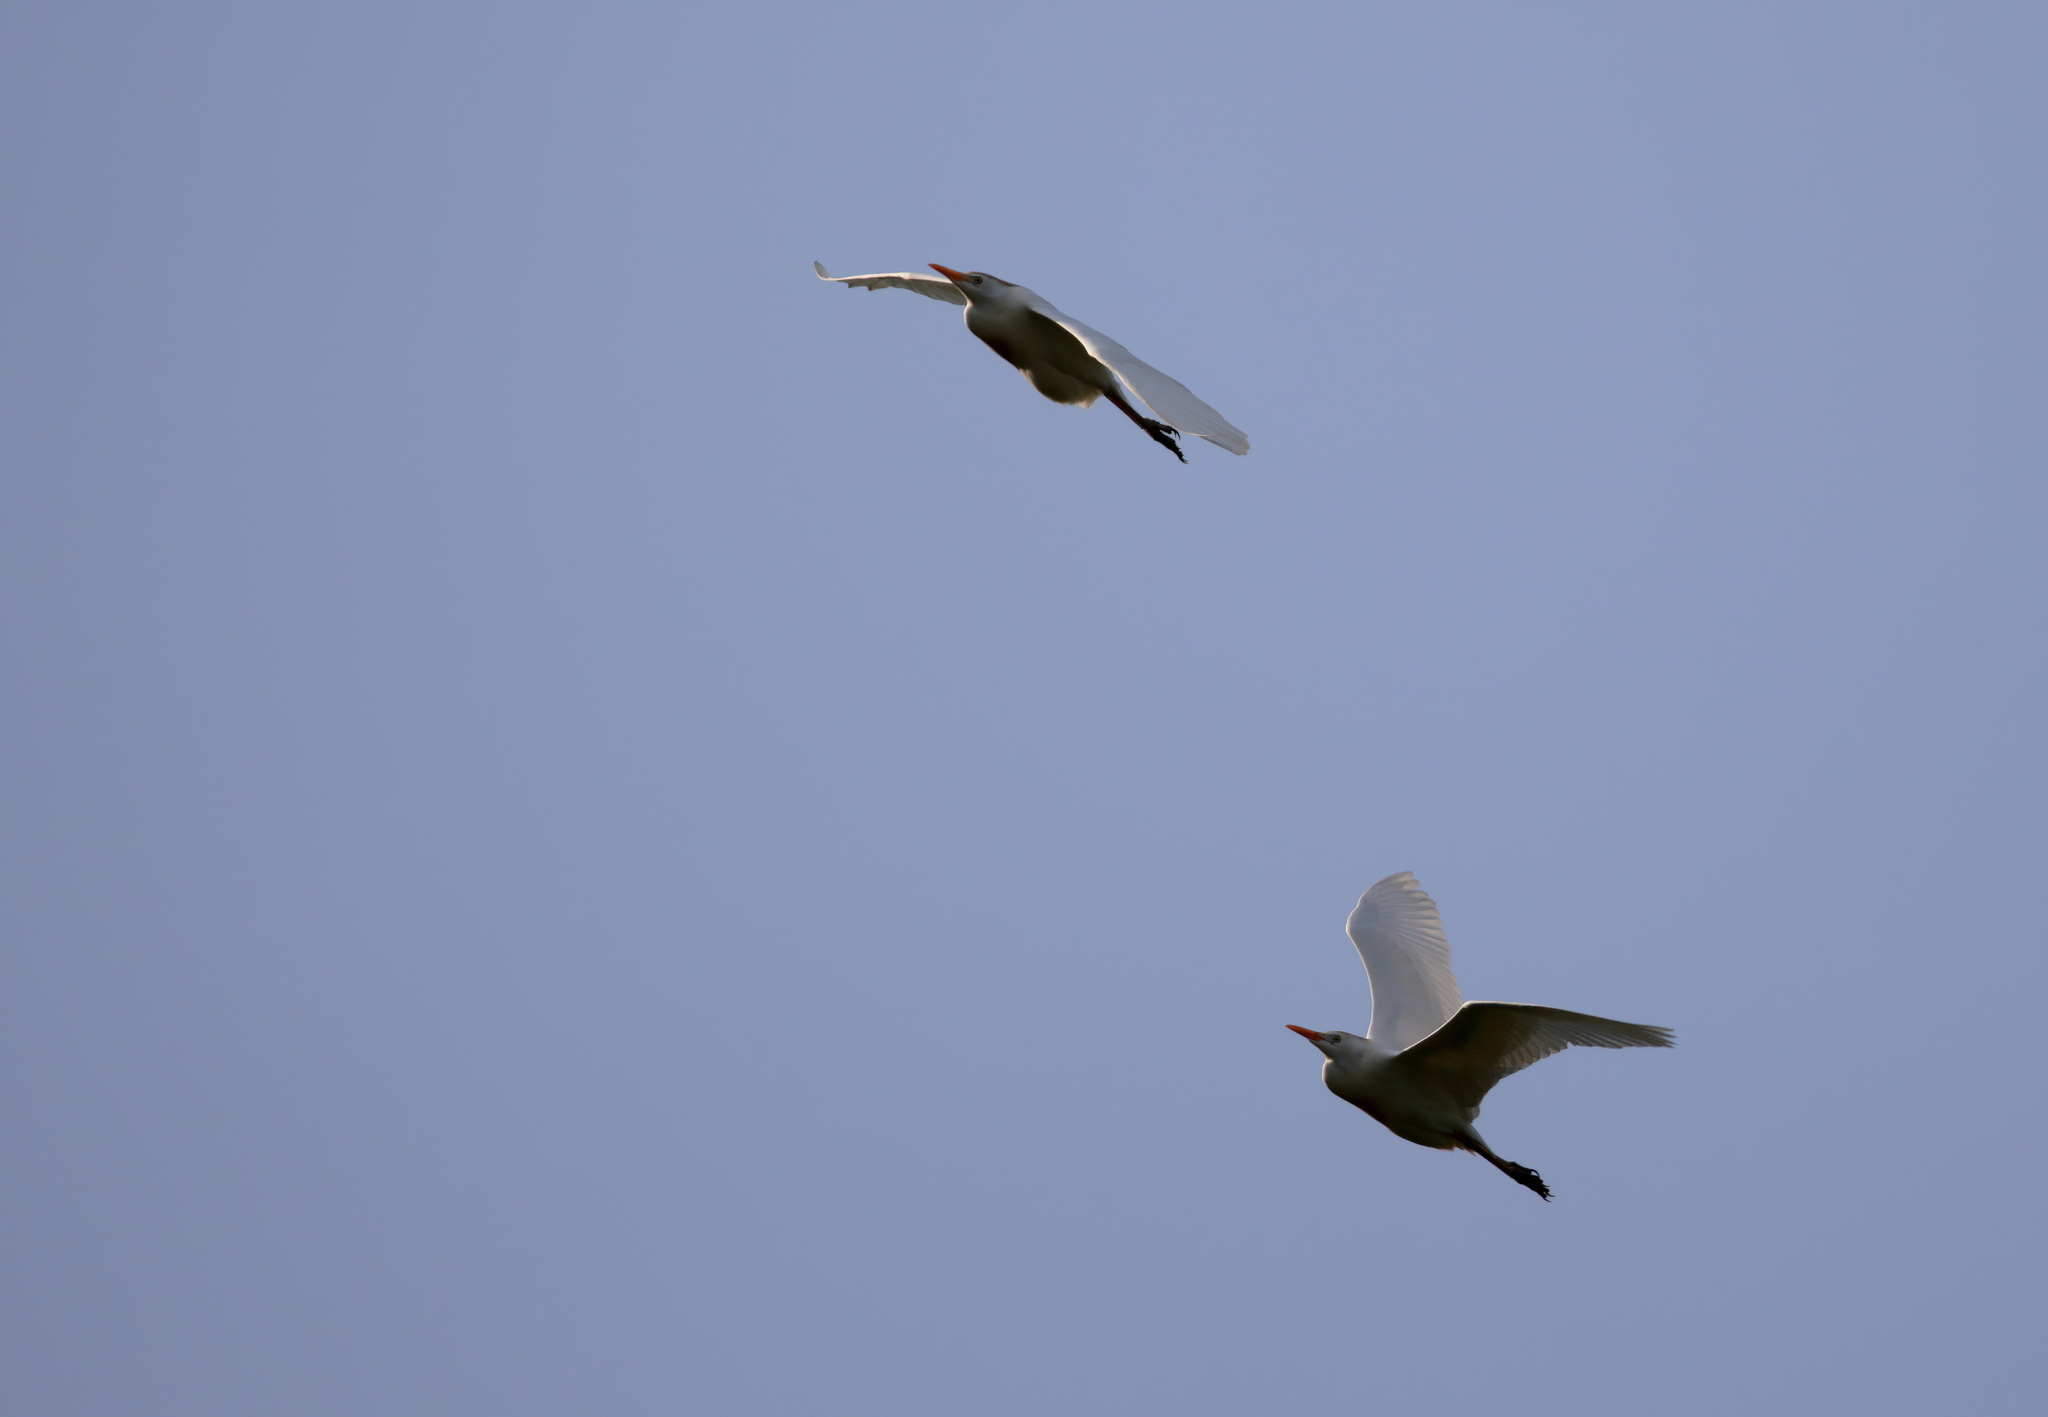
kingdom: Animalia
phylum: Chordata
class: Aves
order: Pelecaniformes
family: Ardeidae
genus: Bubulcus
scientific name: Bubulcus ibis
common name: Cattle egret
